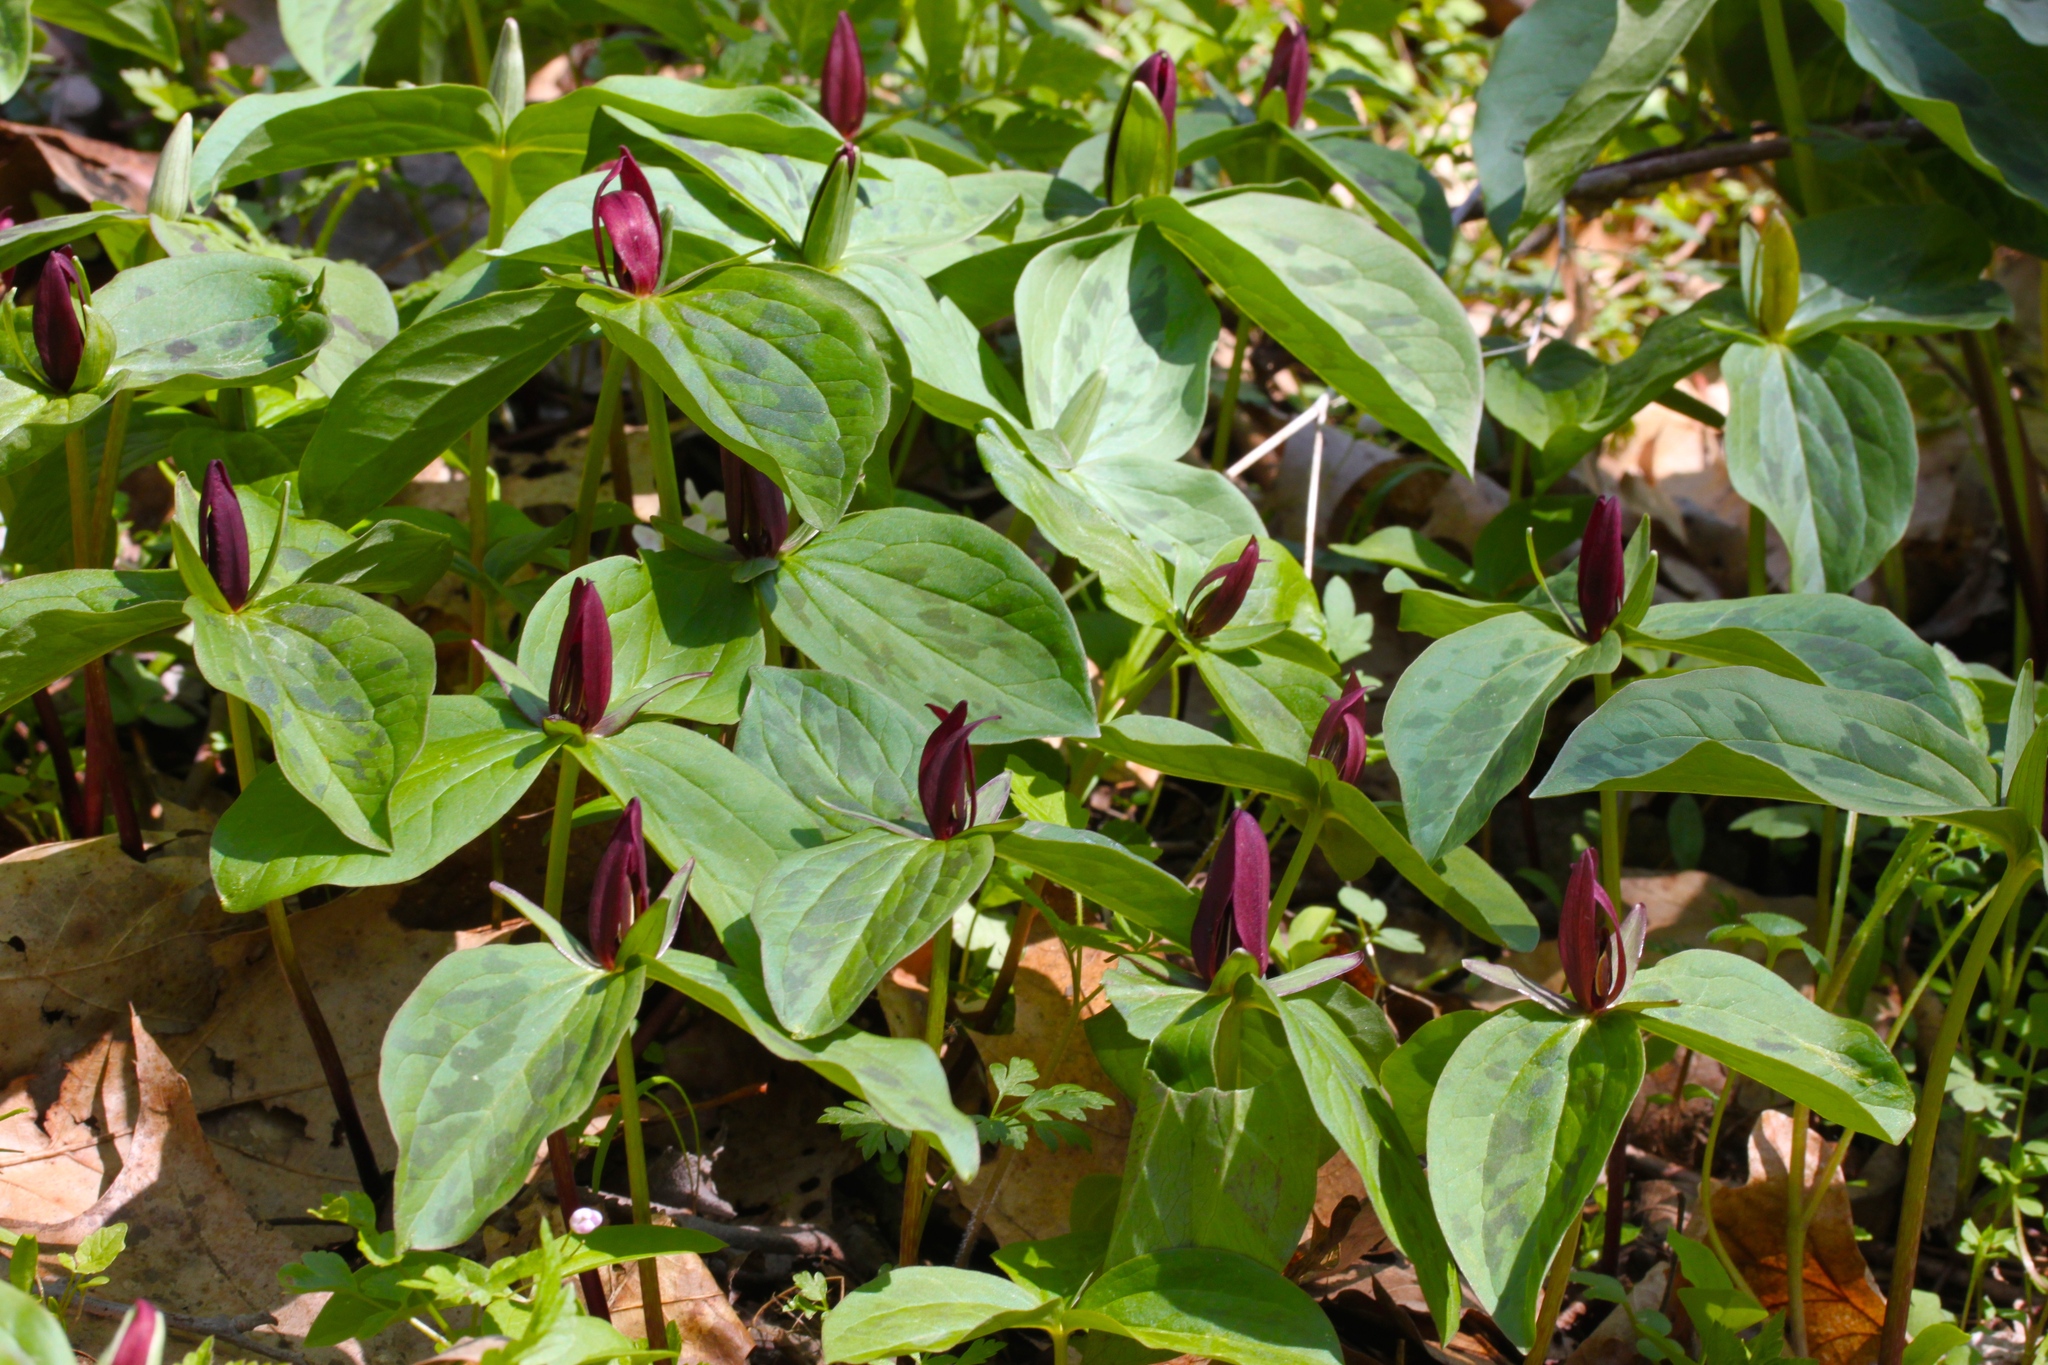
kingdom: Plantae
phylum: Tracheophyta
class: Liliopsida
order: Liliales
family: Melanthiaceae
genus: Trillium
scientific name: Trillium sessile
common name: Sessile trillium
